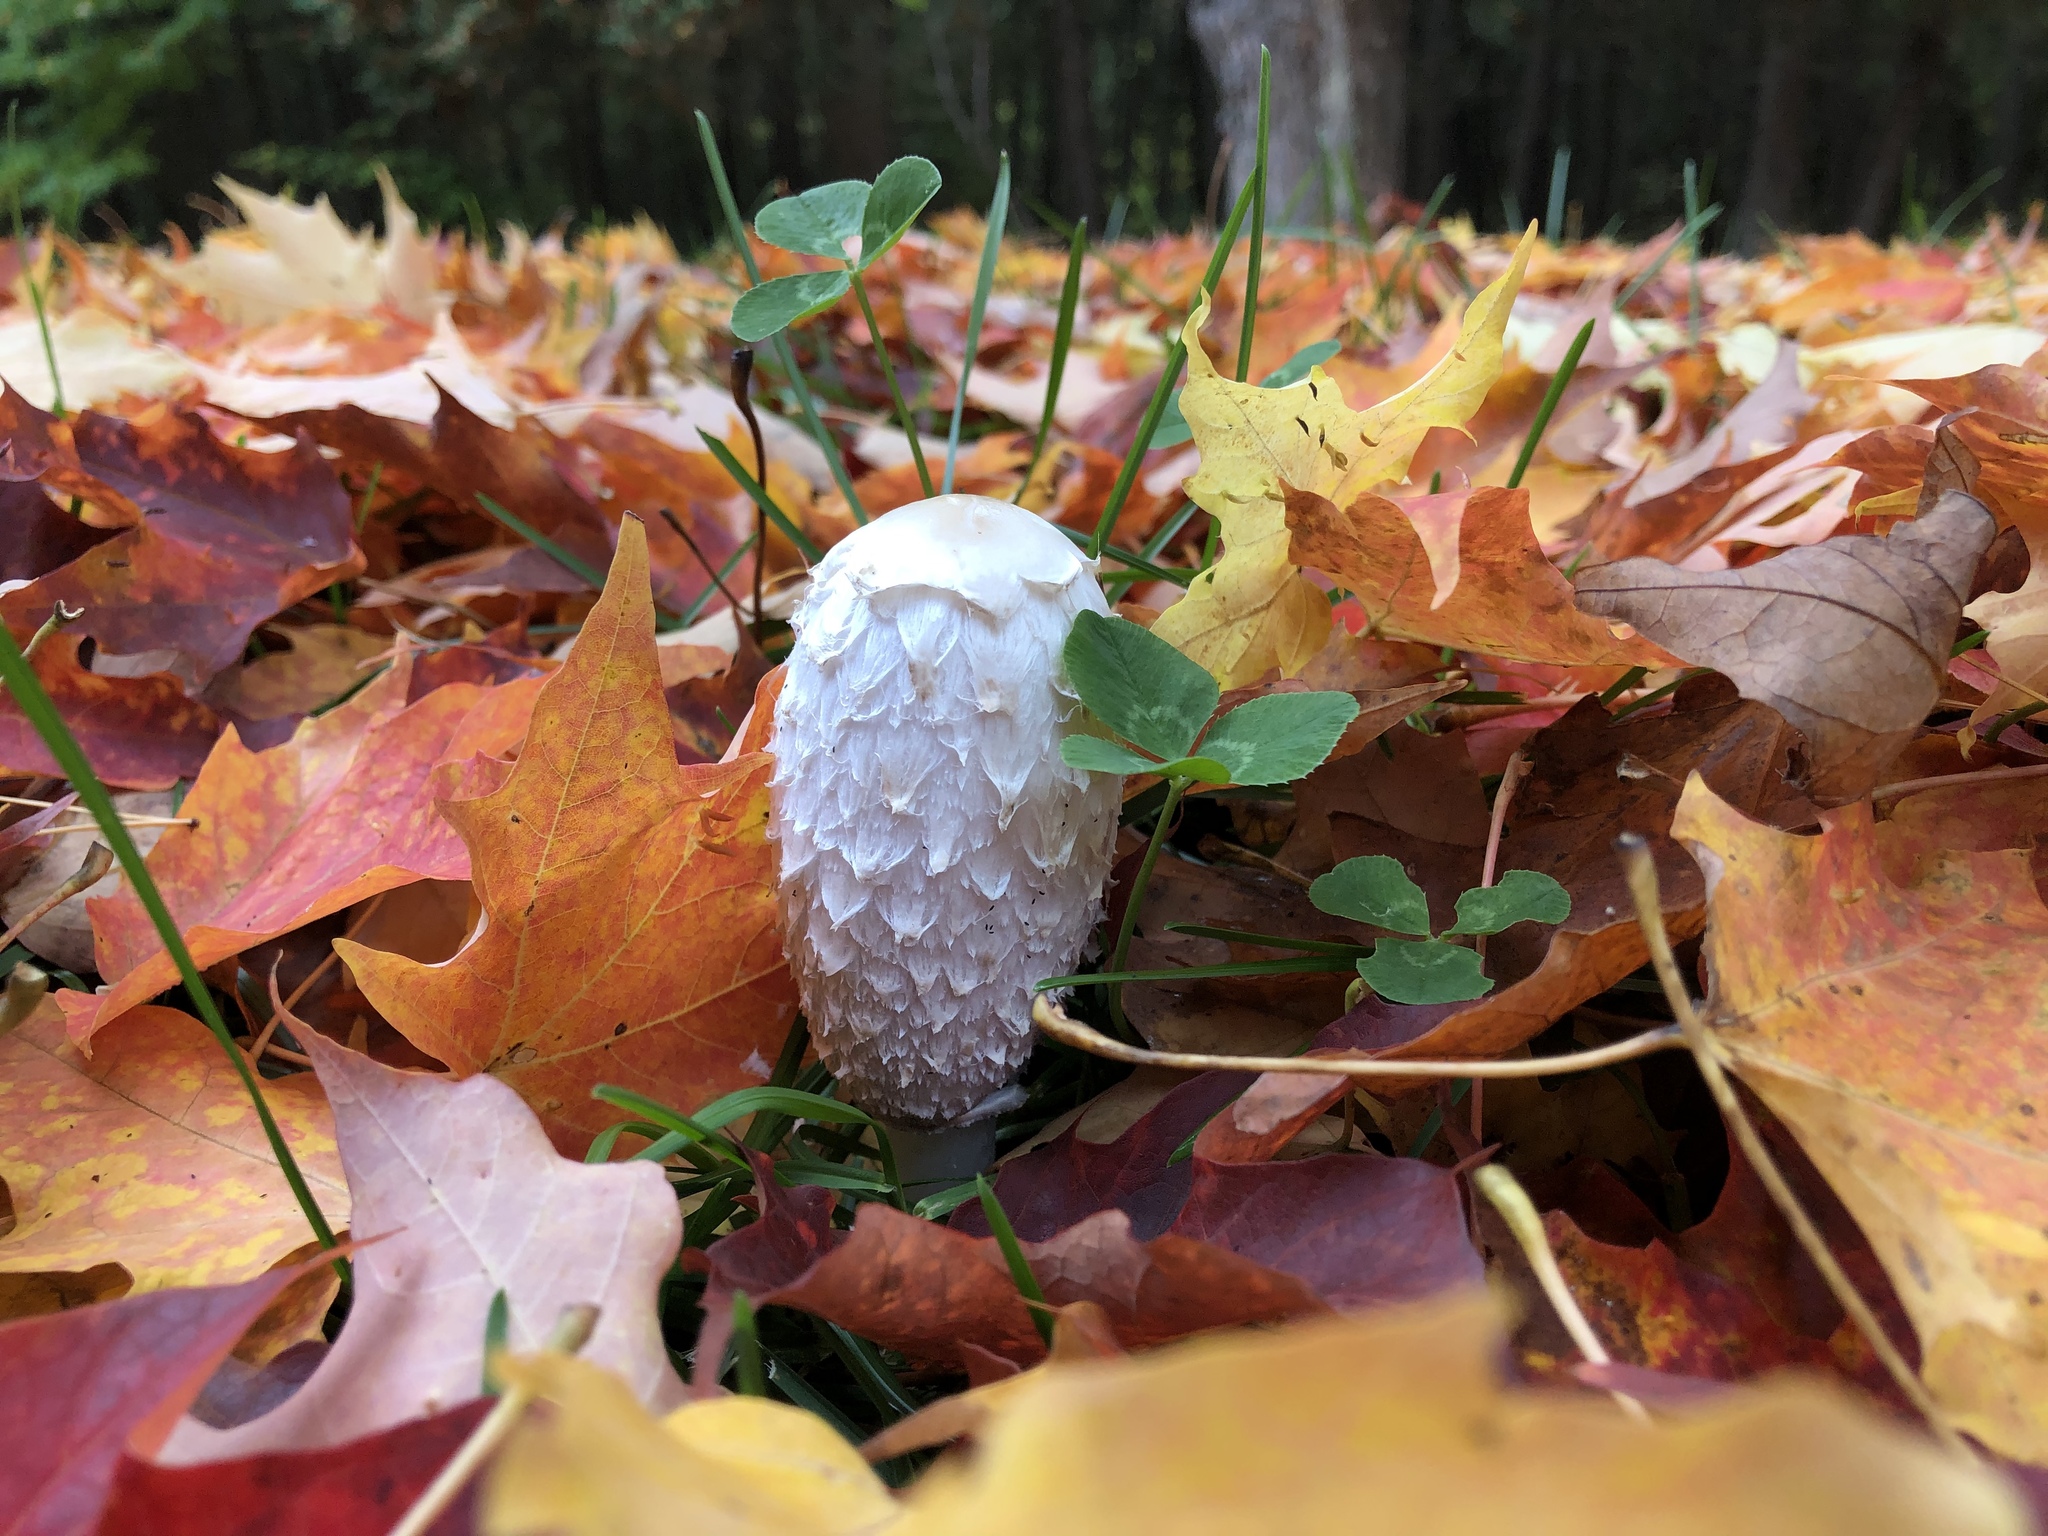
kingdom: Fungi
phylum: Basidiomycota
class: Agaricomycetes
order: Agaricales
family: Agaricaceae
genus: Coprinus
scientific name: Coprinus comatus
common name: Lawyer's wig
